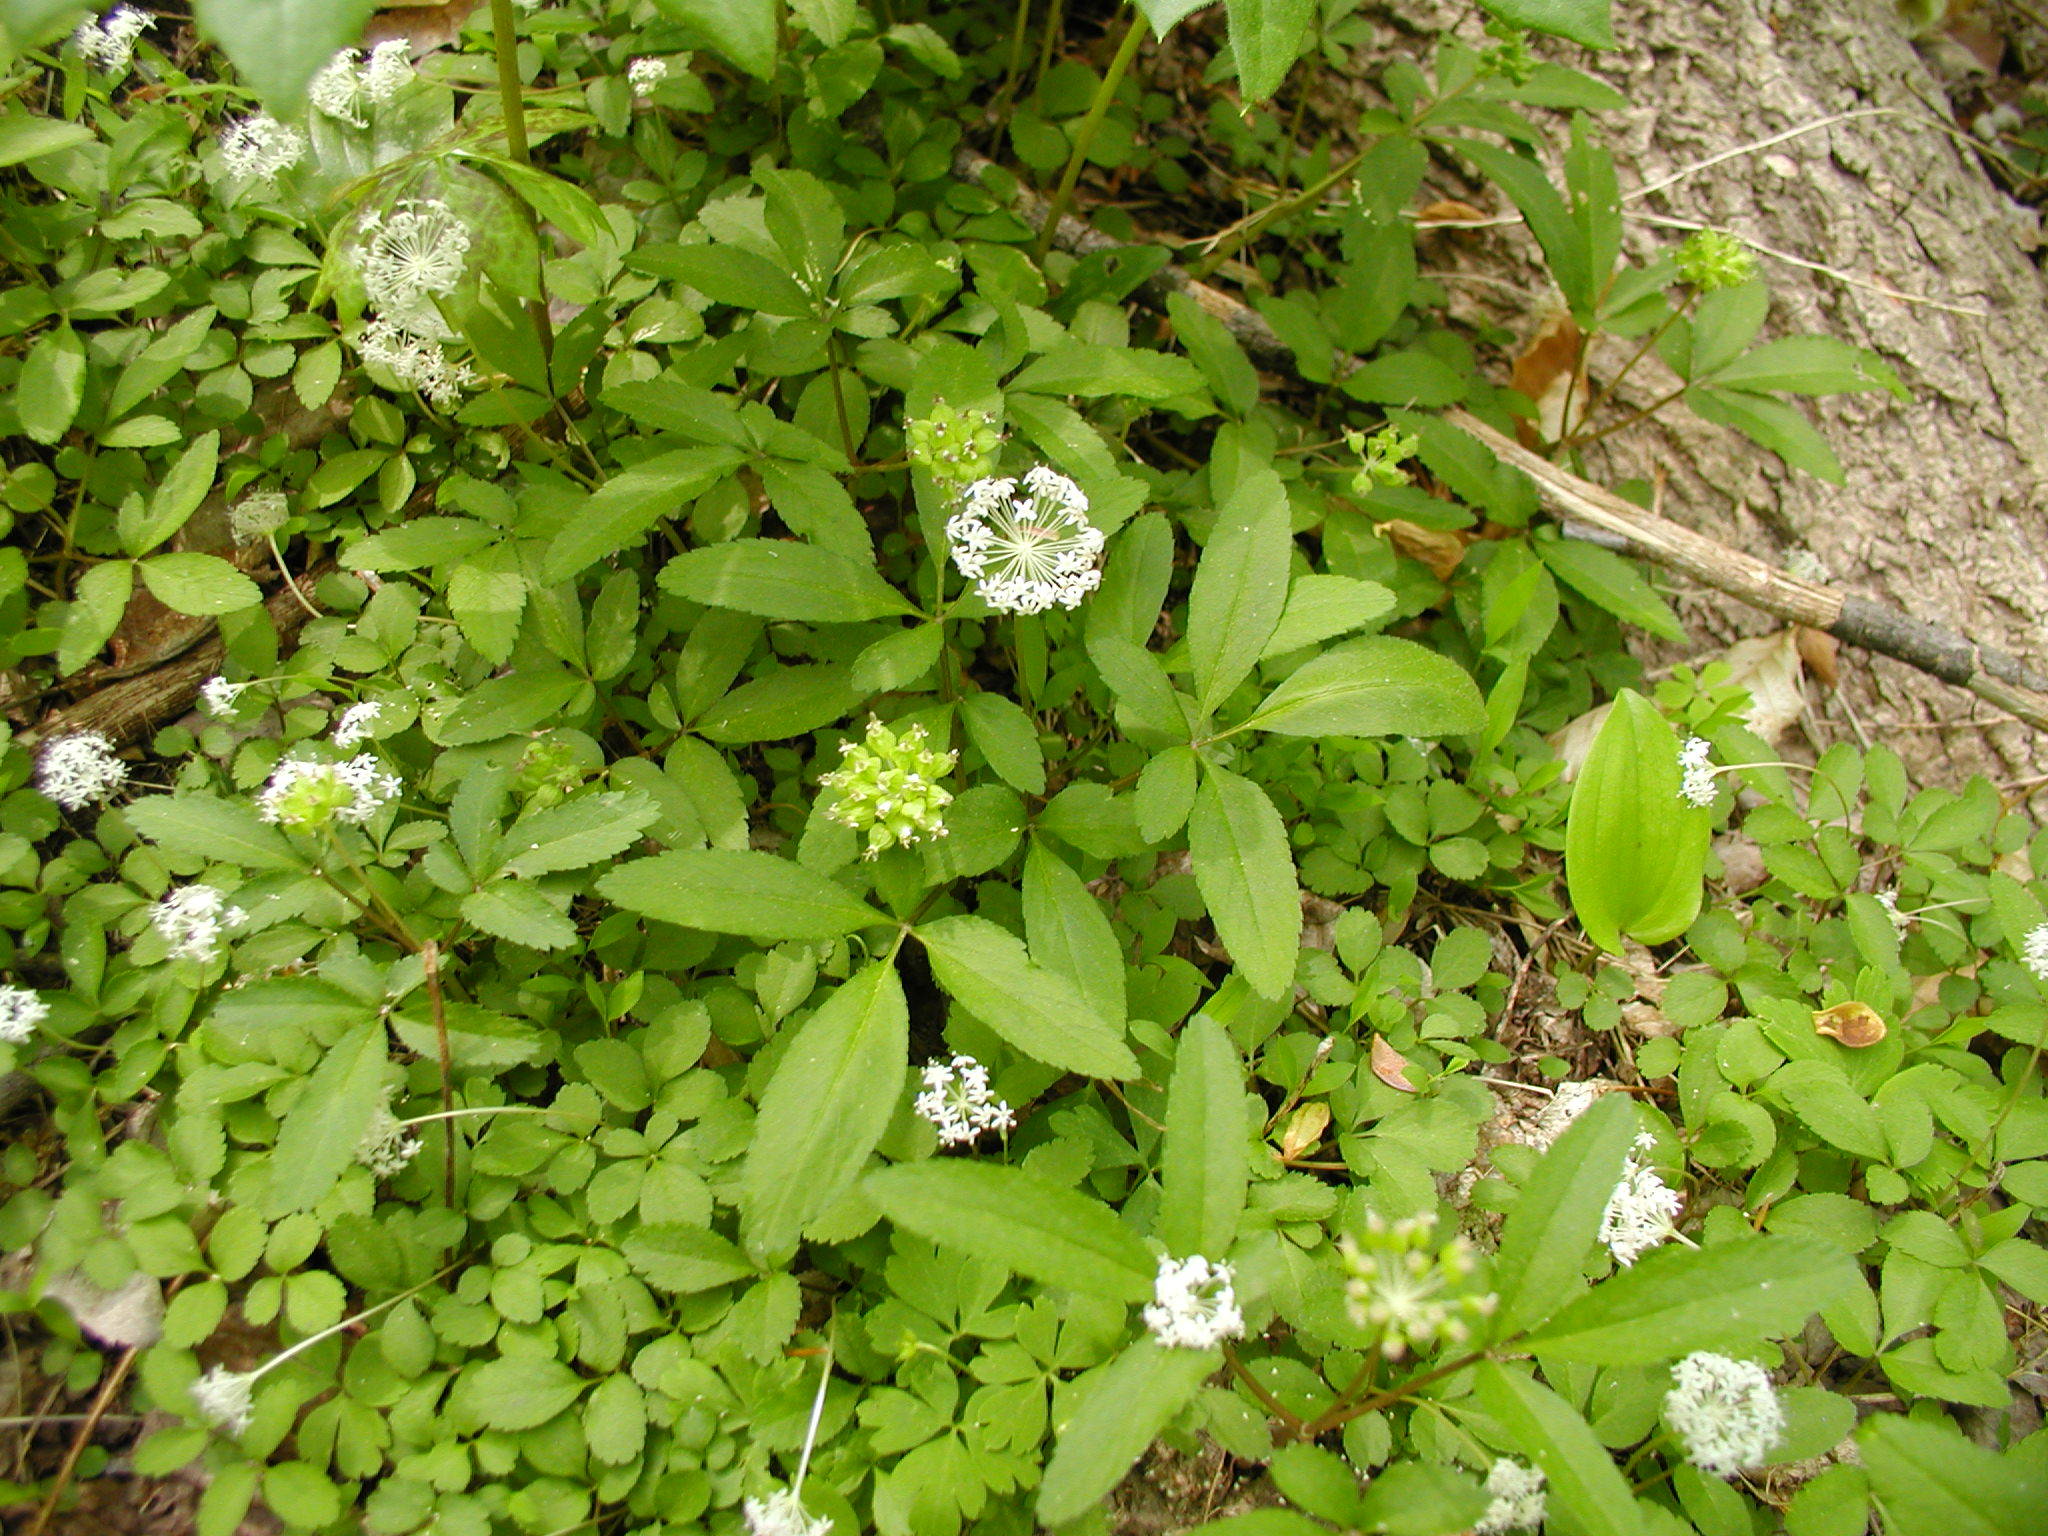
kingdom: Plantae
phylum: Tracheophyta
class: Magnoliopsida
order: Apiales
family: Araliaceae
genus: Panax
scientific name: Panax trifolius
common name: Dwarf ginseng
